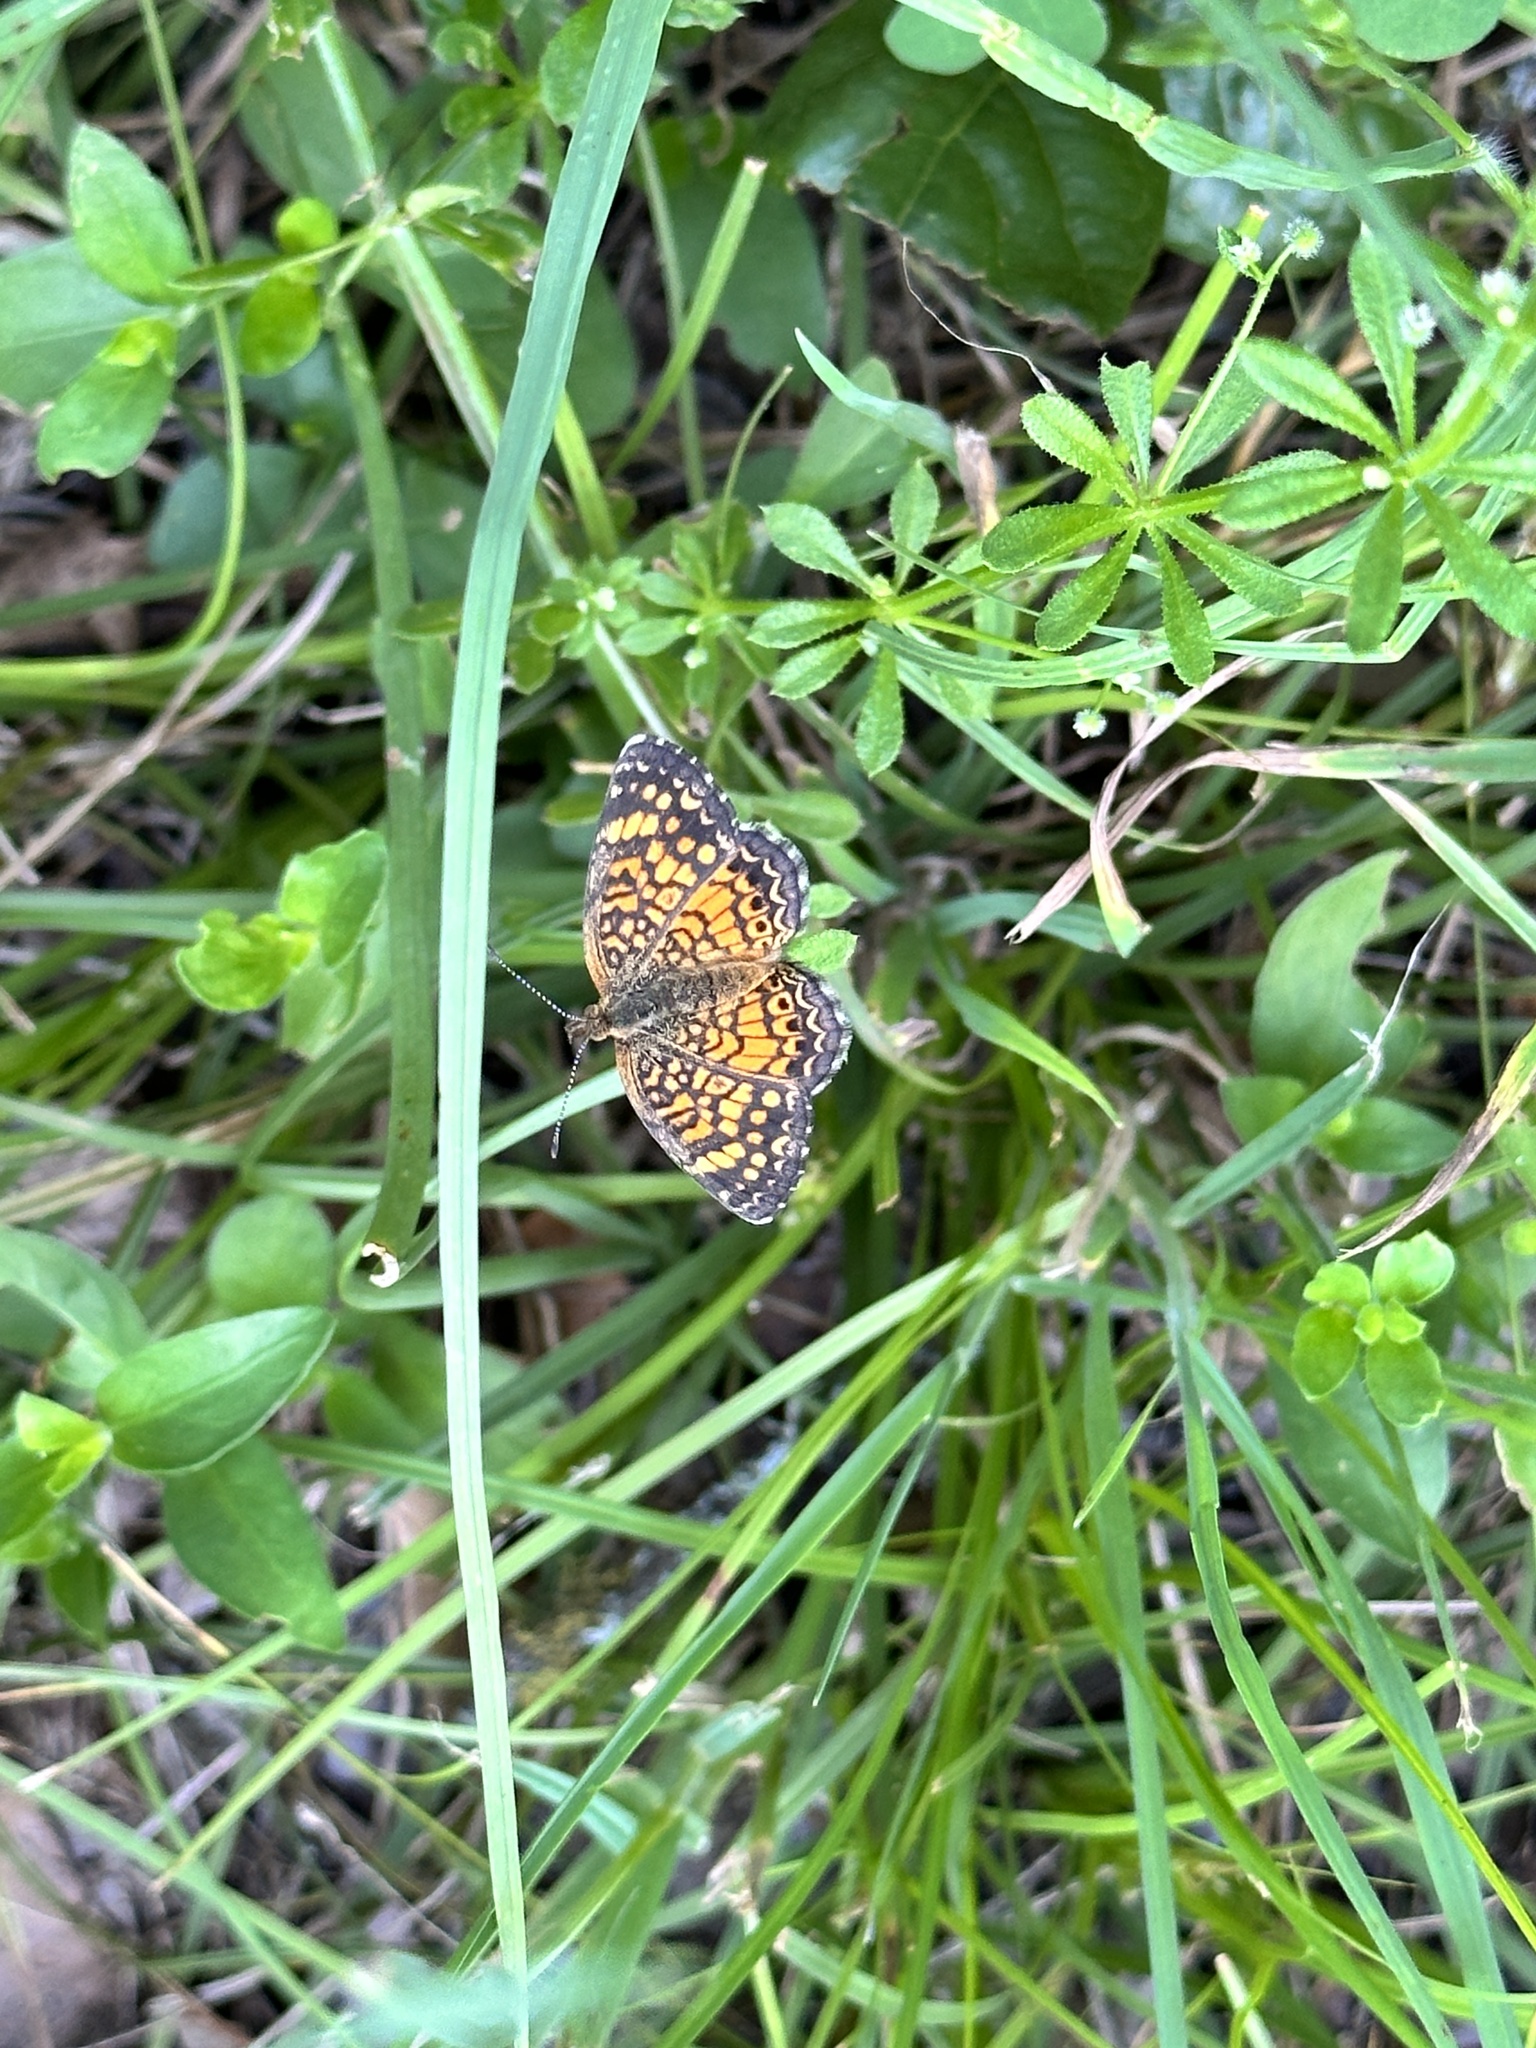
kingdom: Animalia
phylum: Arthropoda
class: Insecta
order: Lepidoptera
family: Nymphalidae
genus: Phyciodes
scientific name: Phyciodes vesta
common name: Vesta crescent
